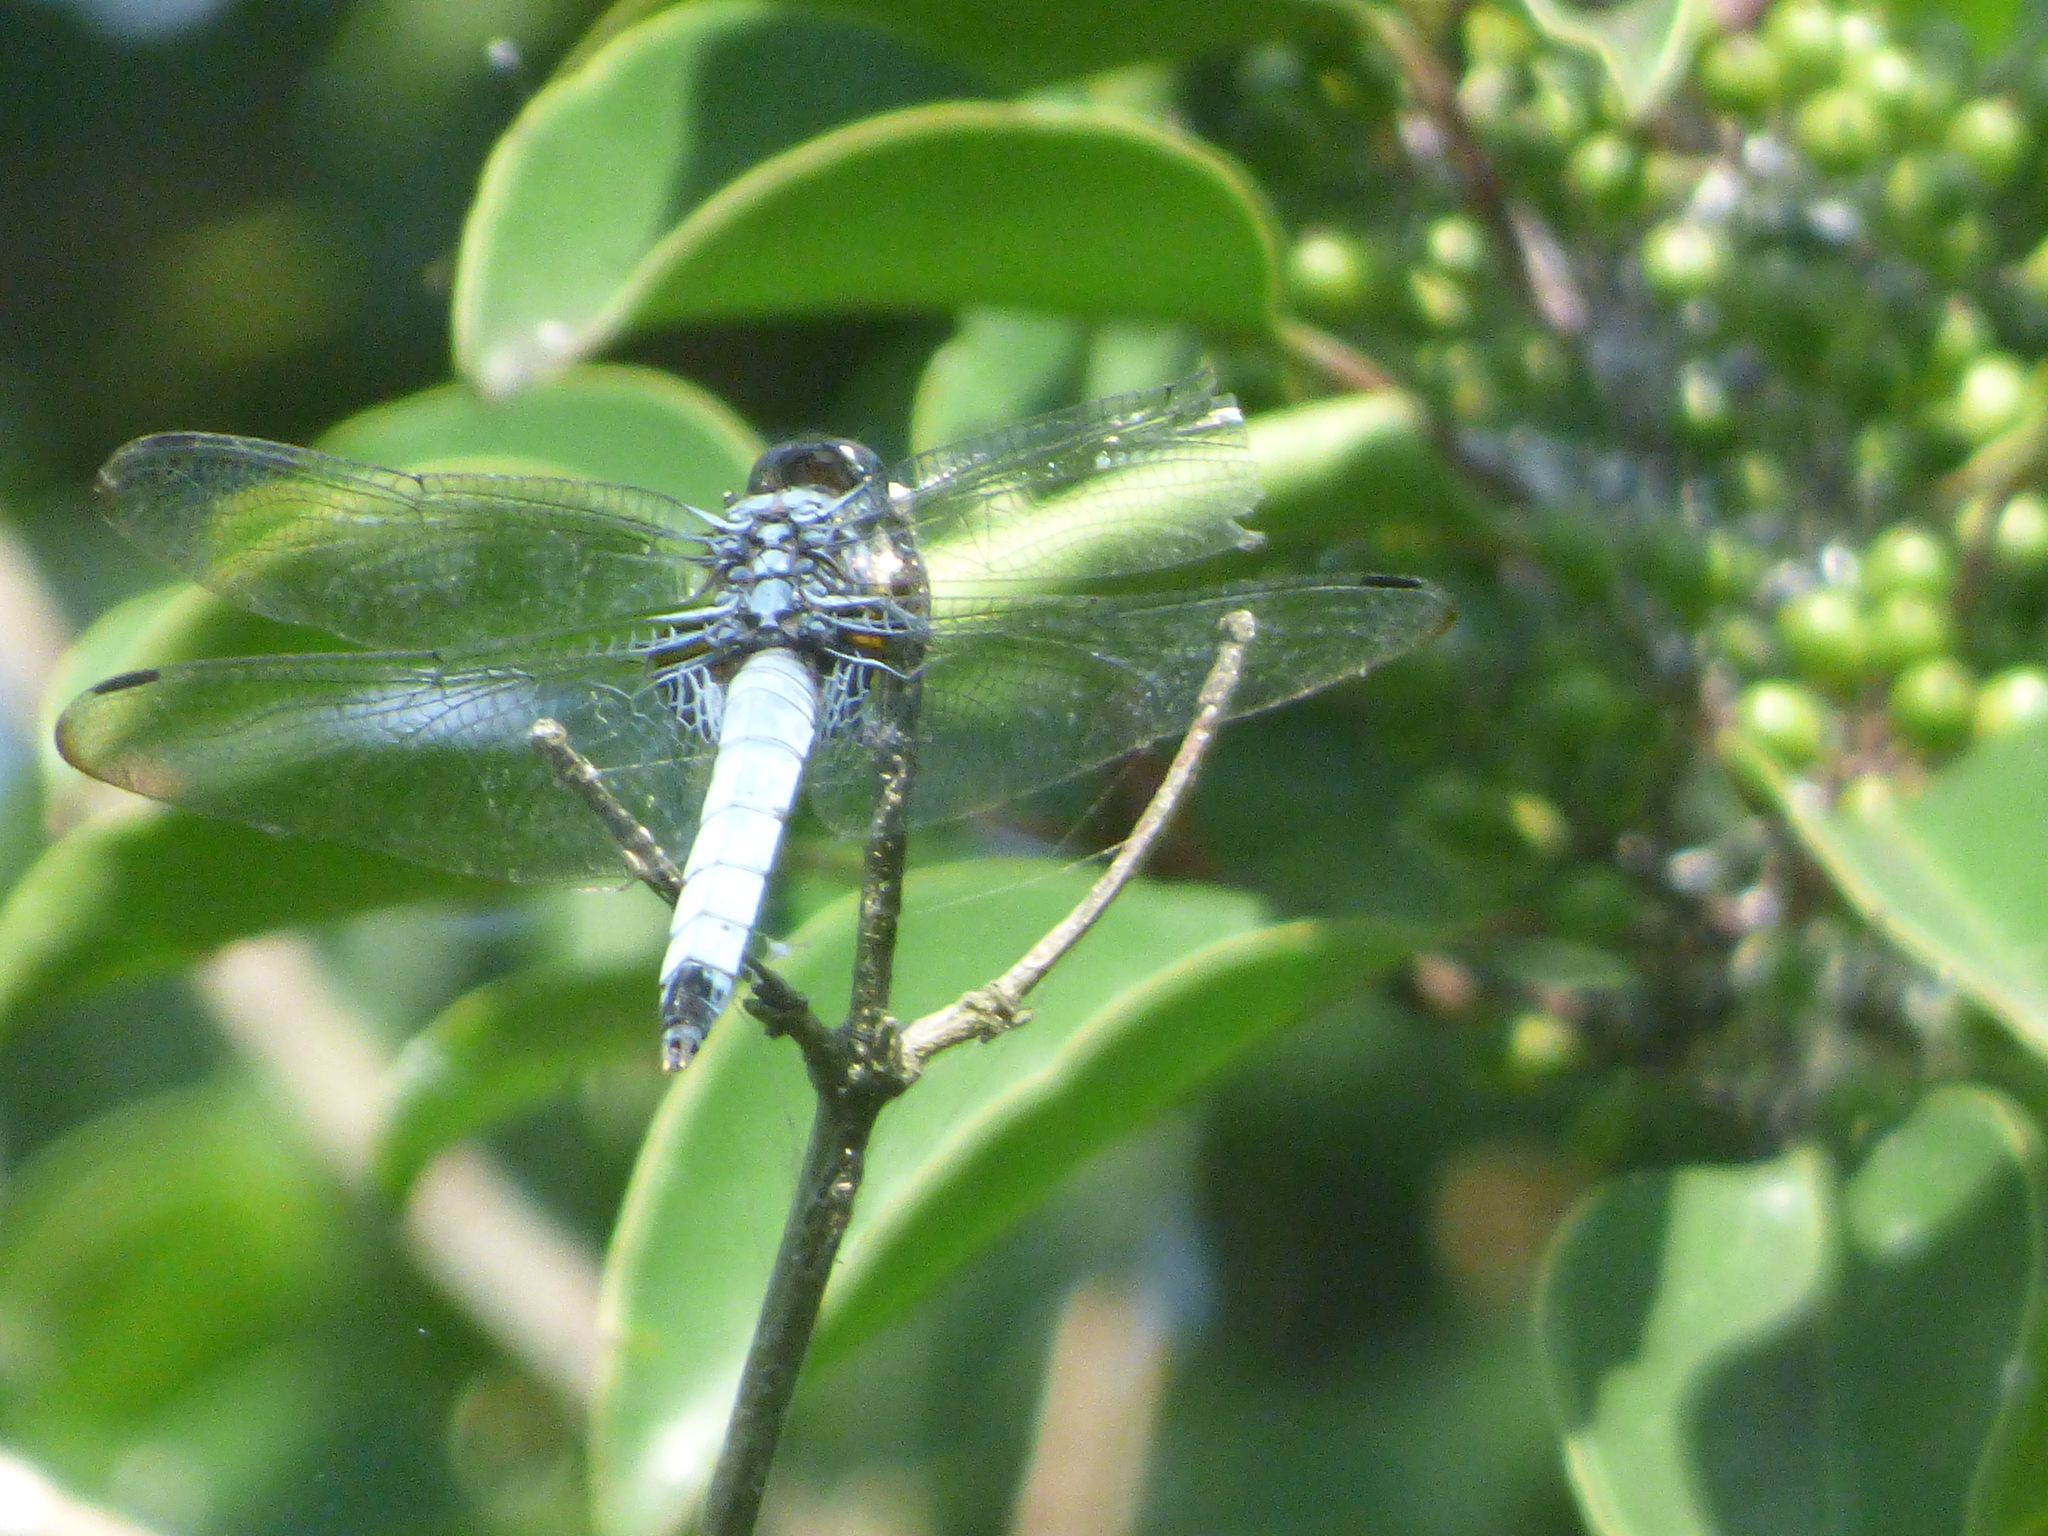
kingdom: Animalia
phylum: Arthropoda
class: Insecta
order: Odonata
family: Libellulidae
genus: Orthetrum
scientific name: Orthetrum melania
